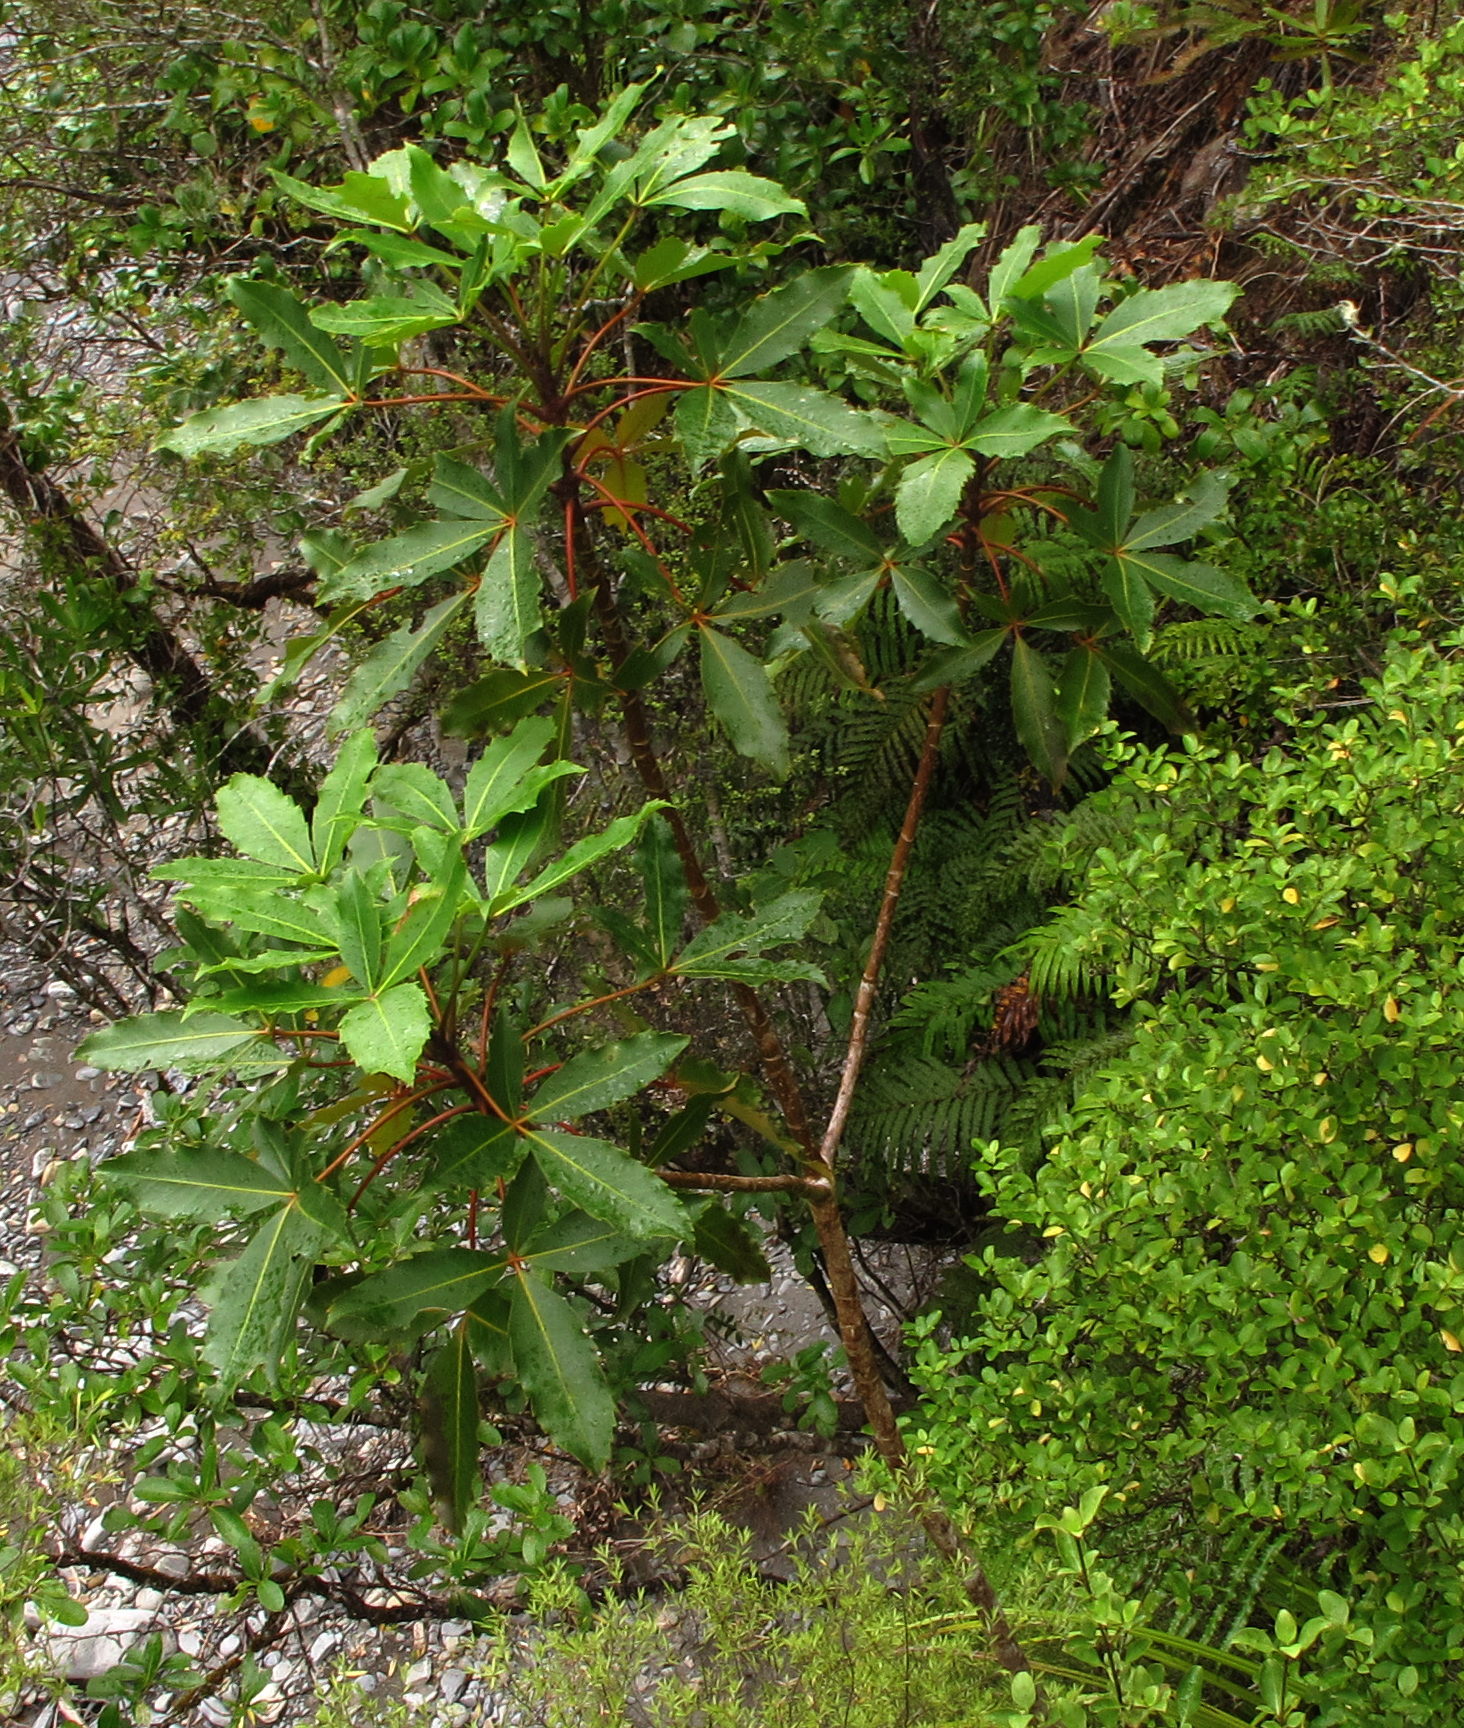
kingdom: Plantae
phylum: Tracheophyta
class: Magnoliopsida
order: Apiales
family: Araliaceae
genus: Neopanax
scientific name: Neopanax colensoi
